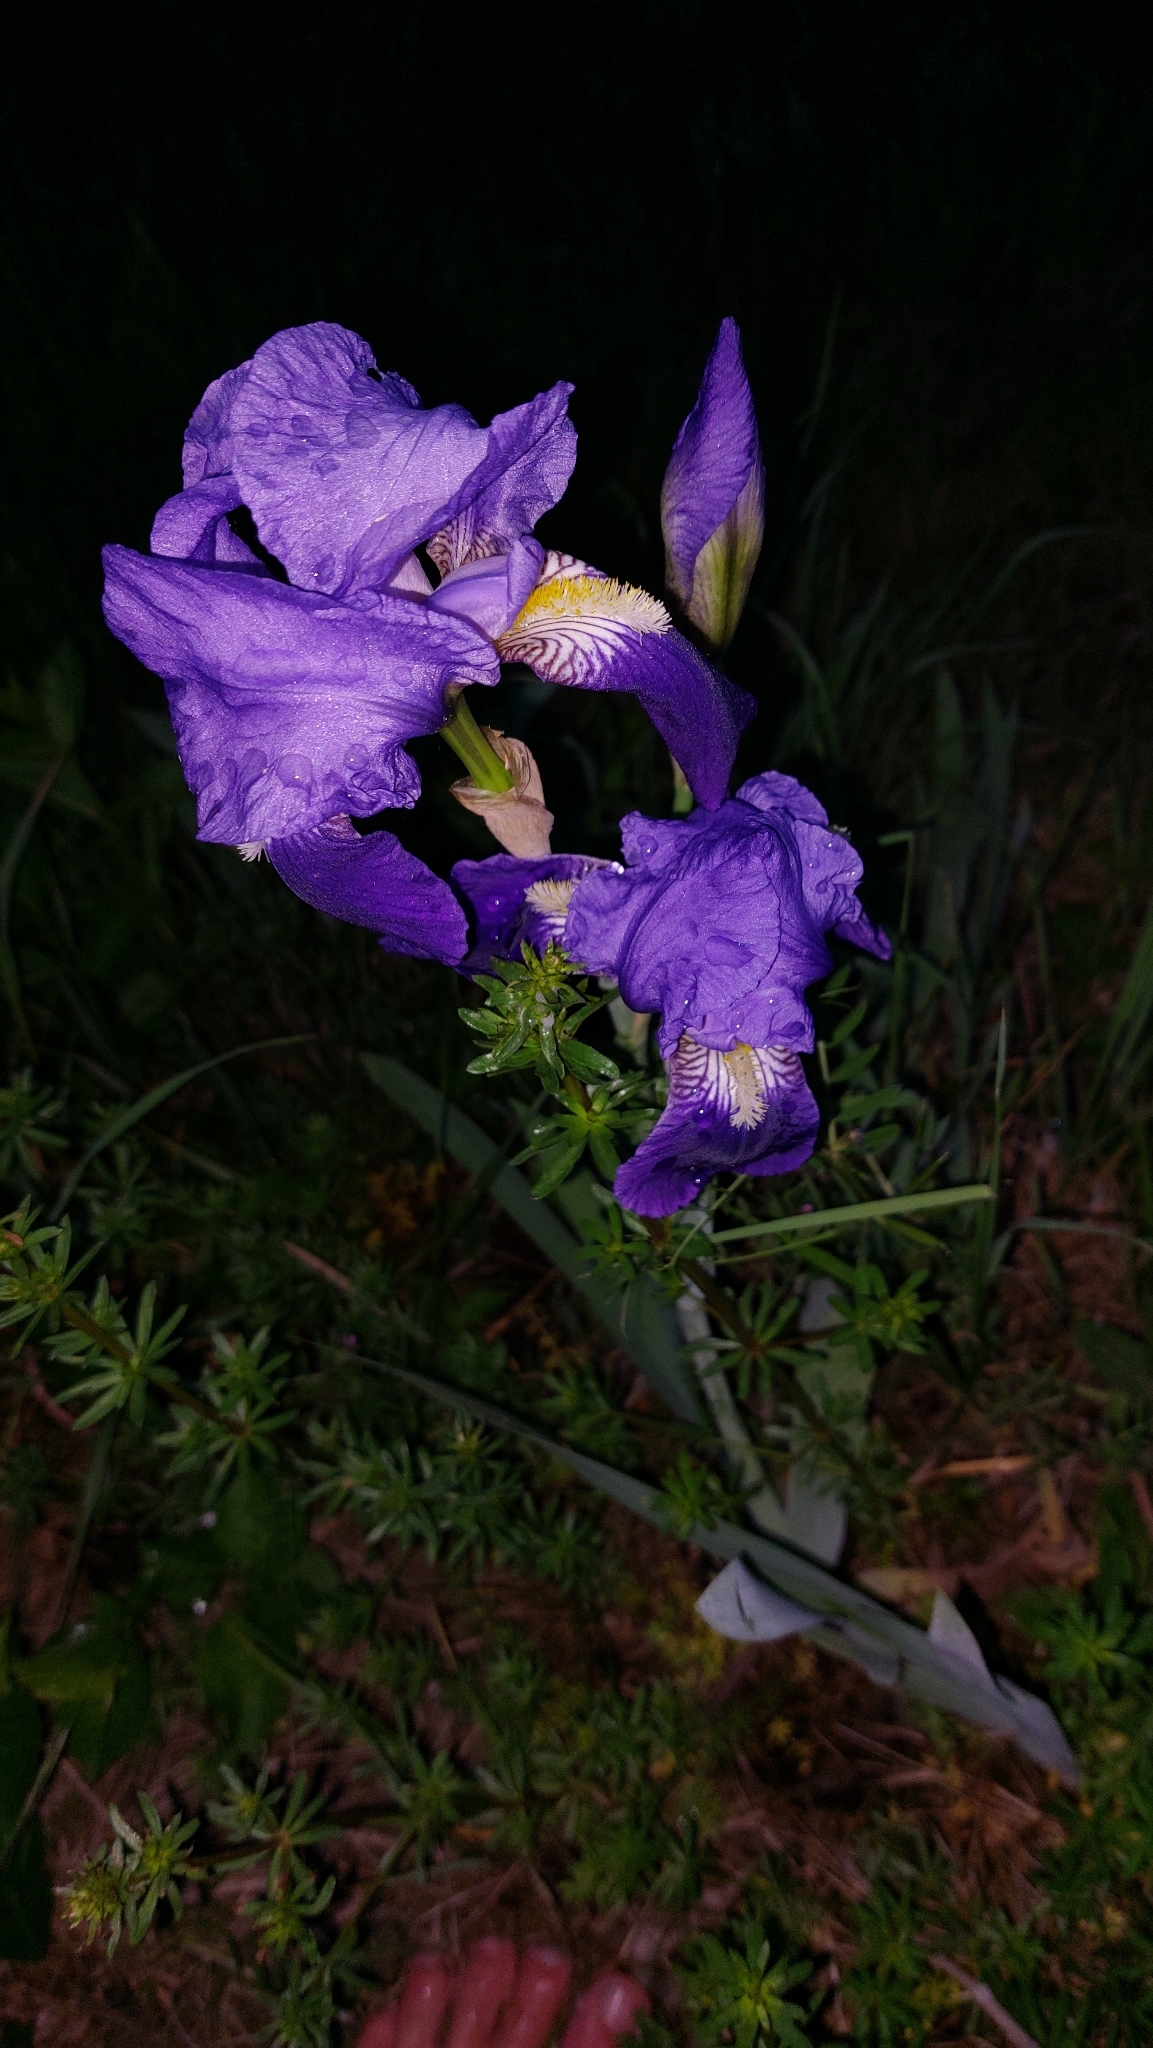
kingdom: Plantae
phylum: Tracheophyta
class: Liliopsida
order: Asparagales
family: Iridaceae
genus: Iris
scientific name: Iris germanica
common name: German iris
